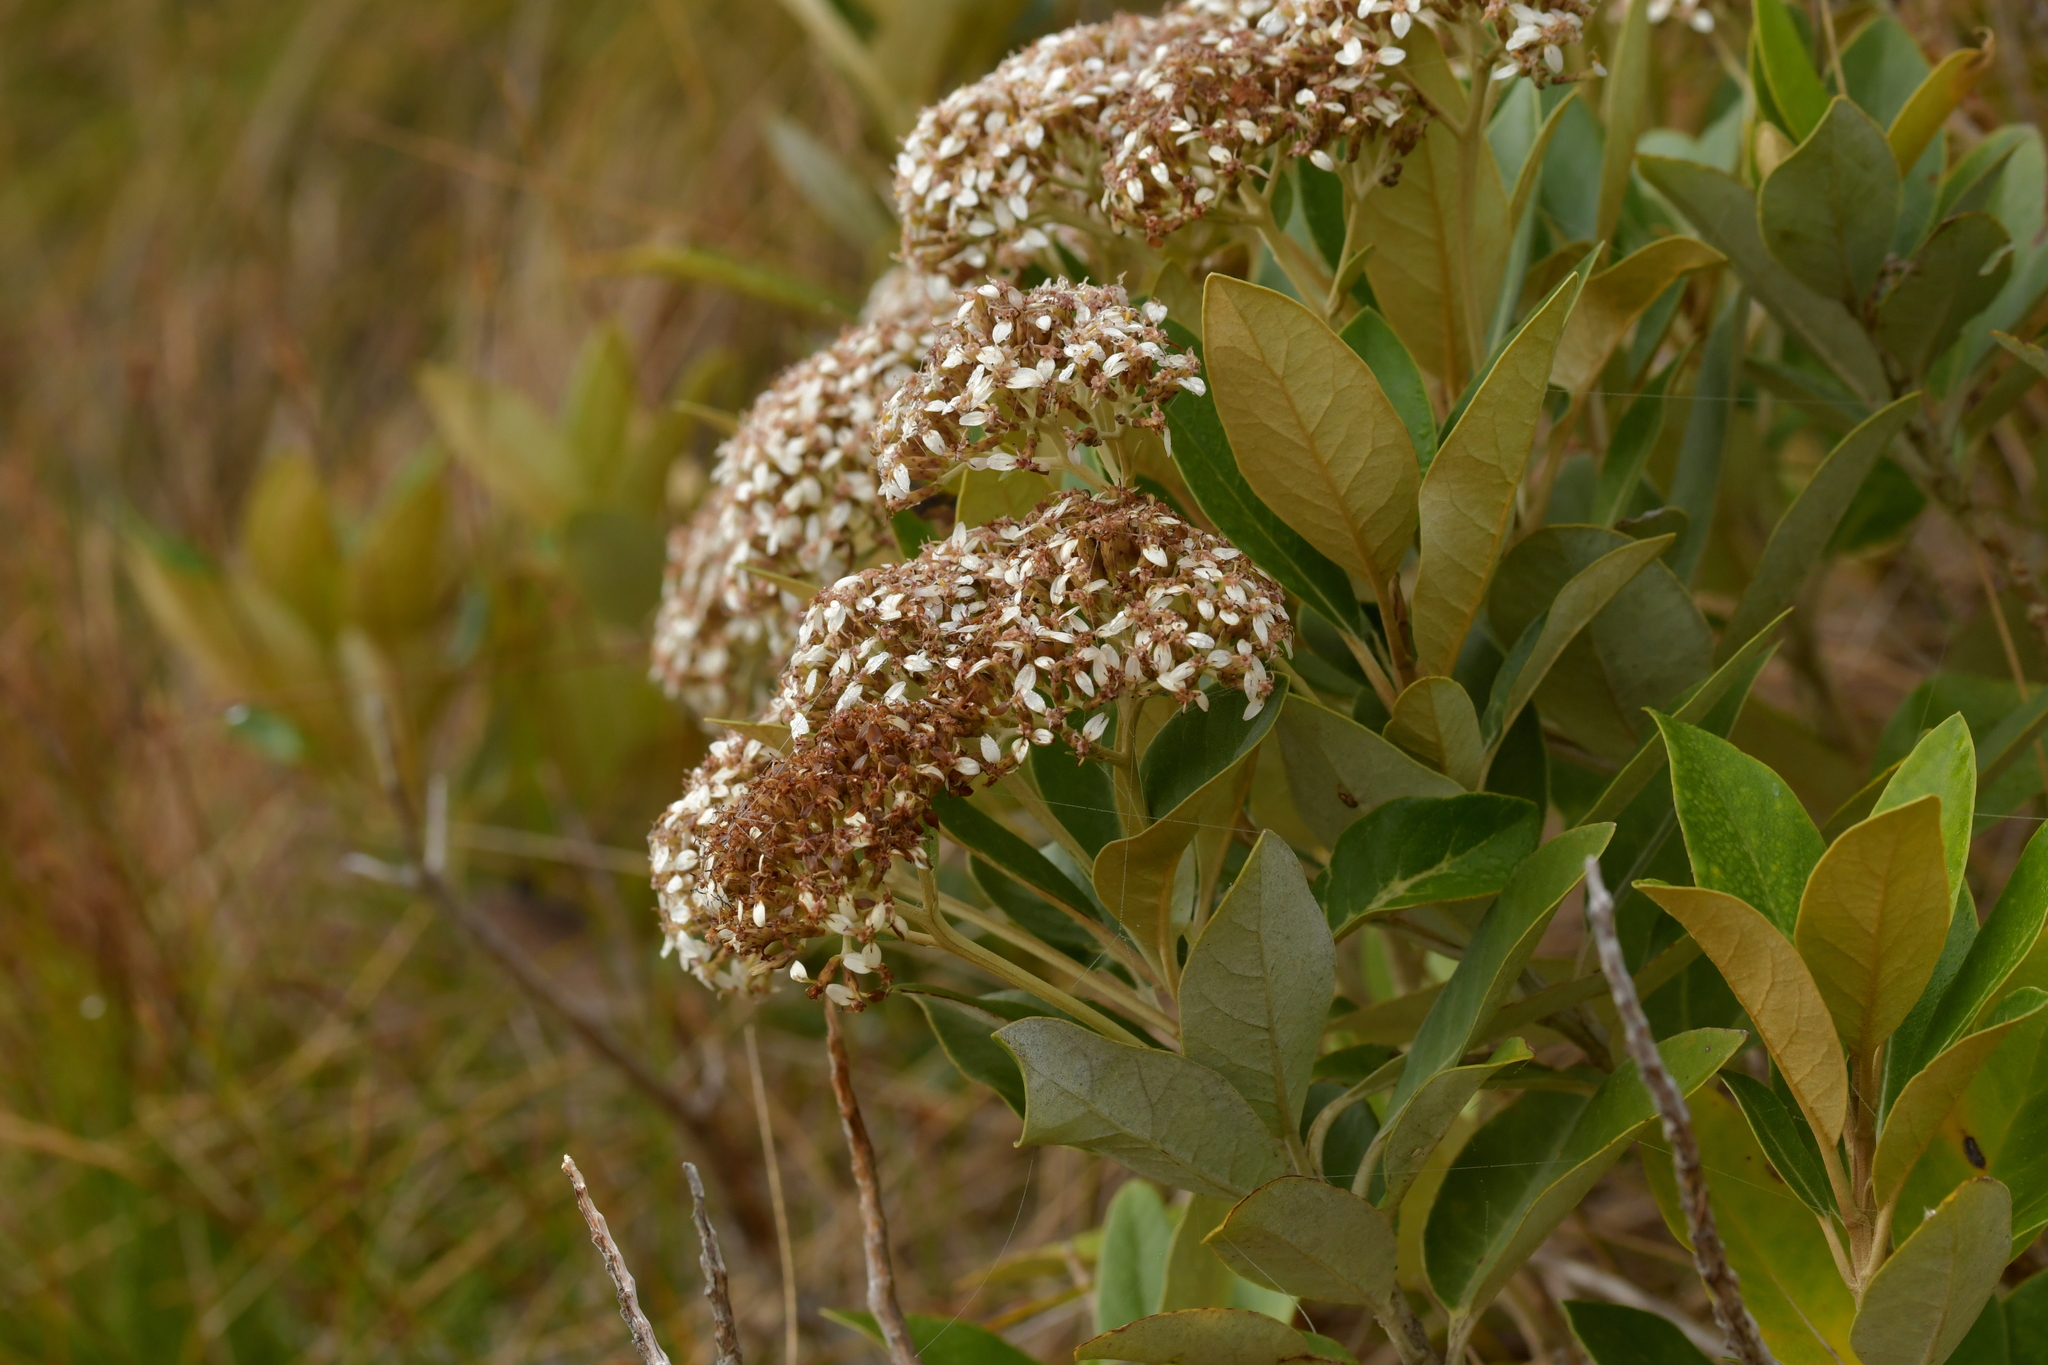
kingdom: Plantae
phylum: Tracheophyta
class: Magnoliopsida
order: Asterales
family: Asteraceae
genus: Olearia
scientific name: Olearia avicenniifolia
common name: Mangrove-leaf daisybush
